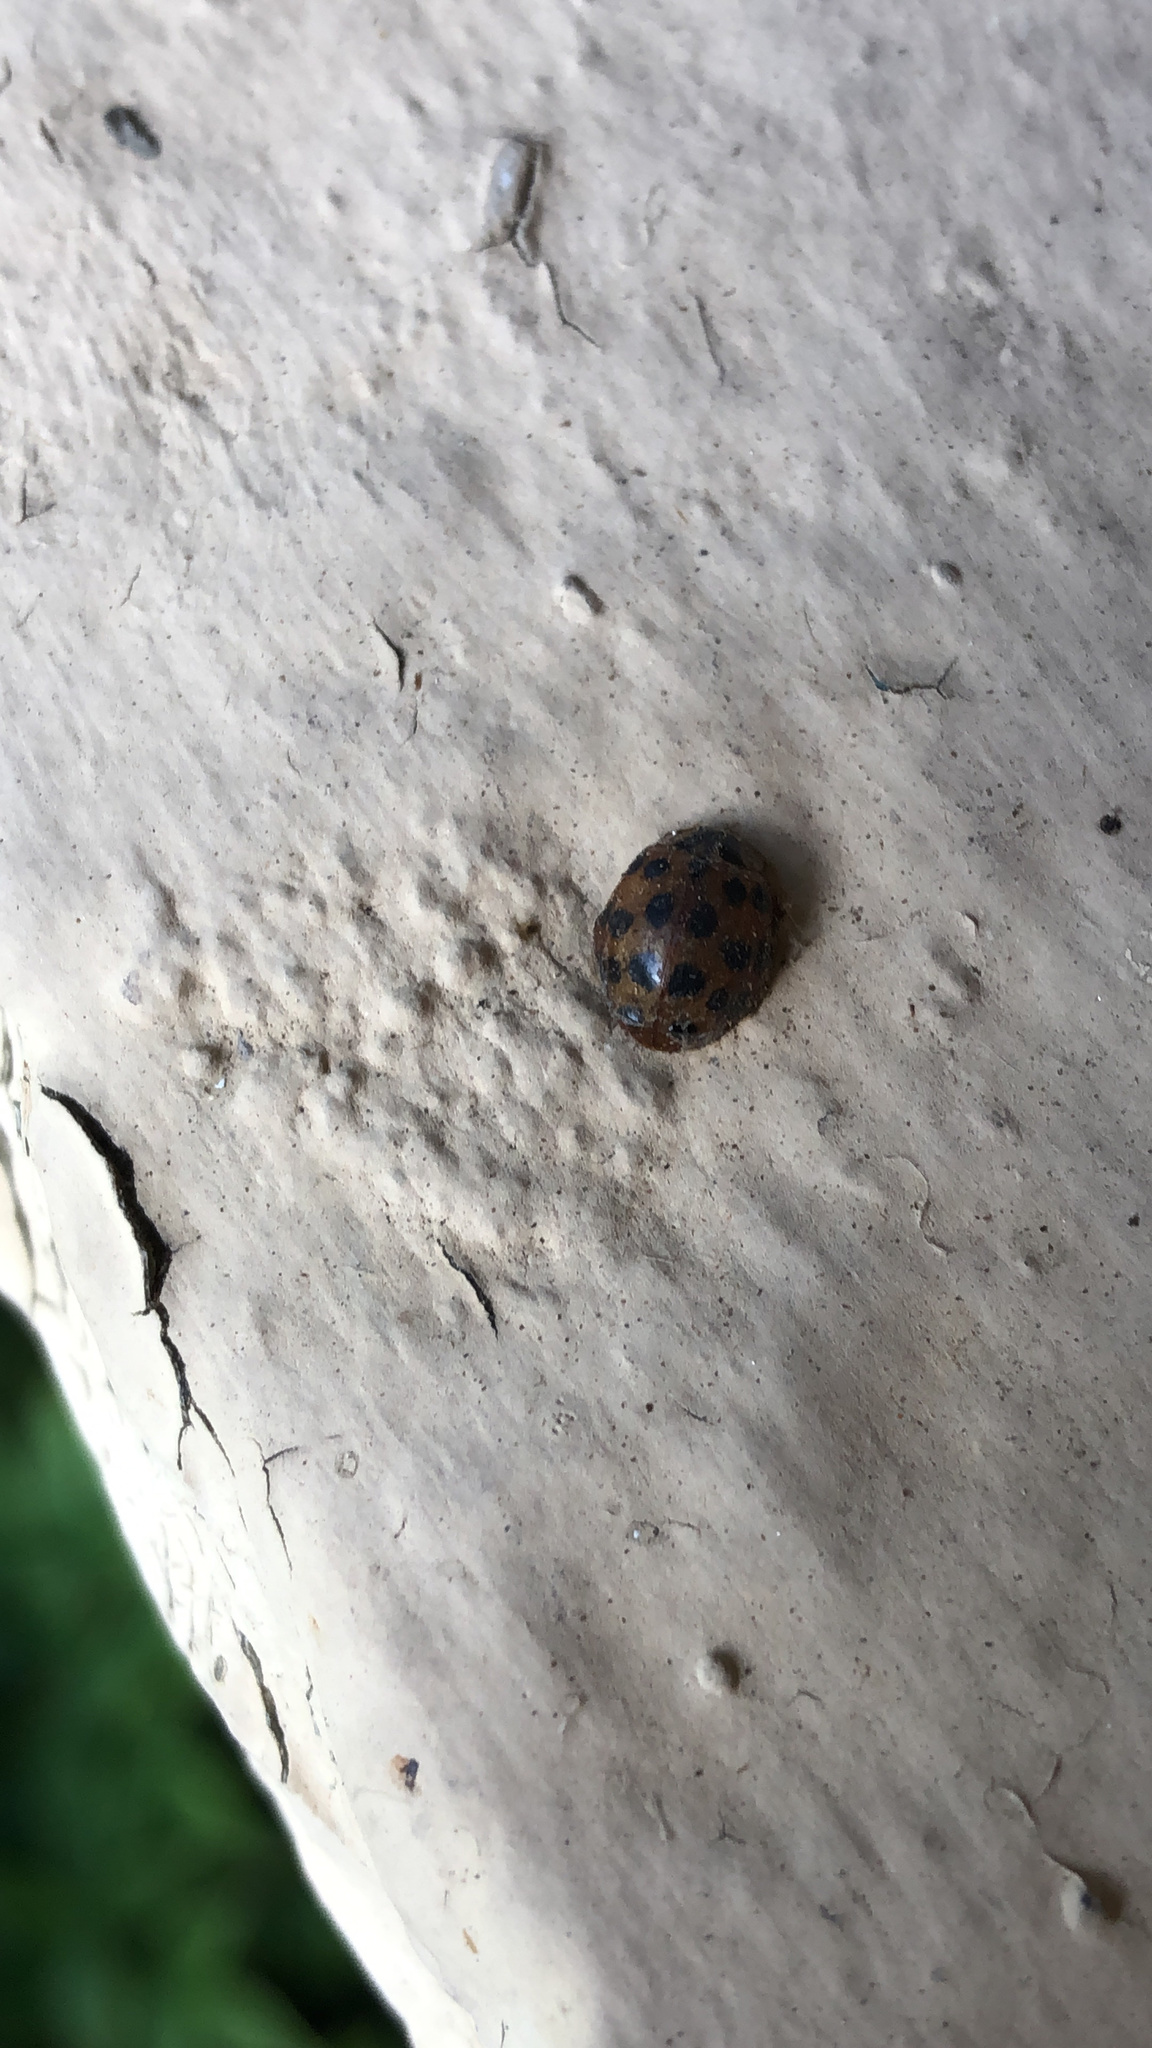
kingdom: Animalia
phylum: Arthropoda
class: Insecta
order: Coleoptera
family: Coccinellidae
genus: Harmonia
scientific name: Harmonia axyridis
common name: Harlequin ladybird
